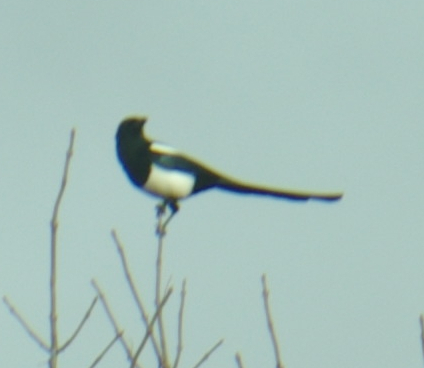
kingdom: Animalia
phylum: Chordata
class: Aves
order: Passeriformes
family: Corvidae
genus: Pica
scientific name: Pica hudsonia
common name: Black-billed magpie
